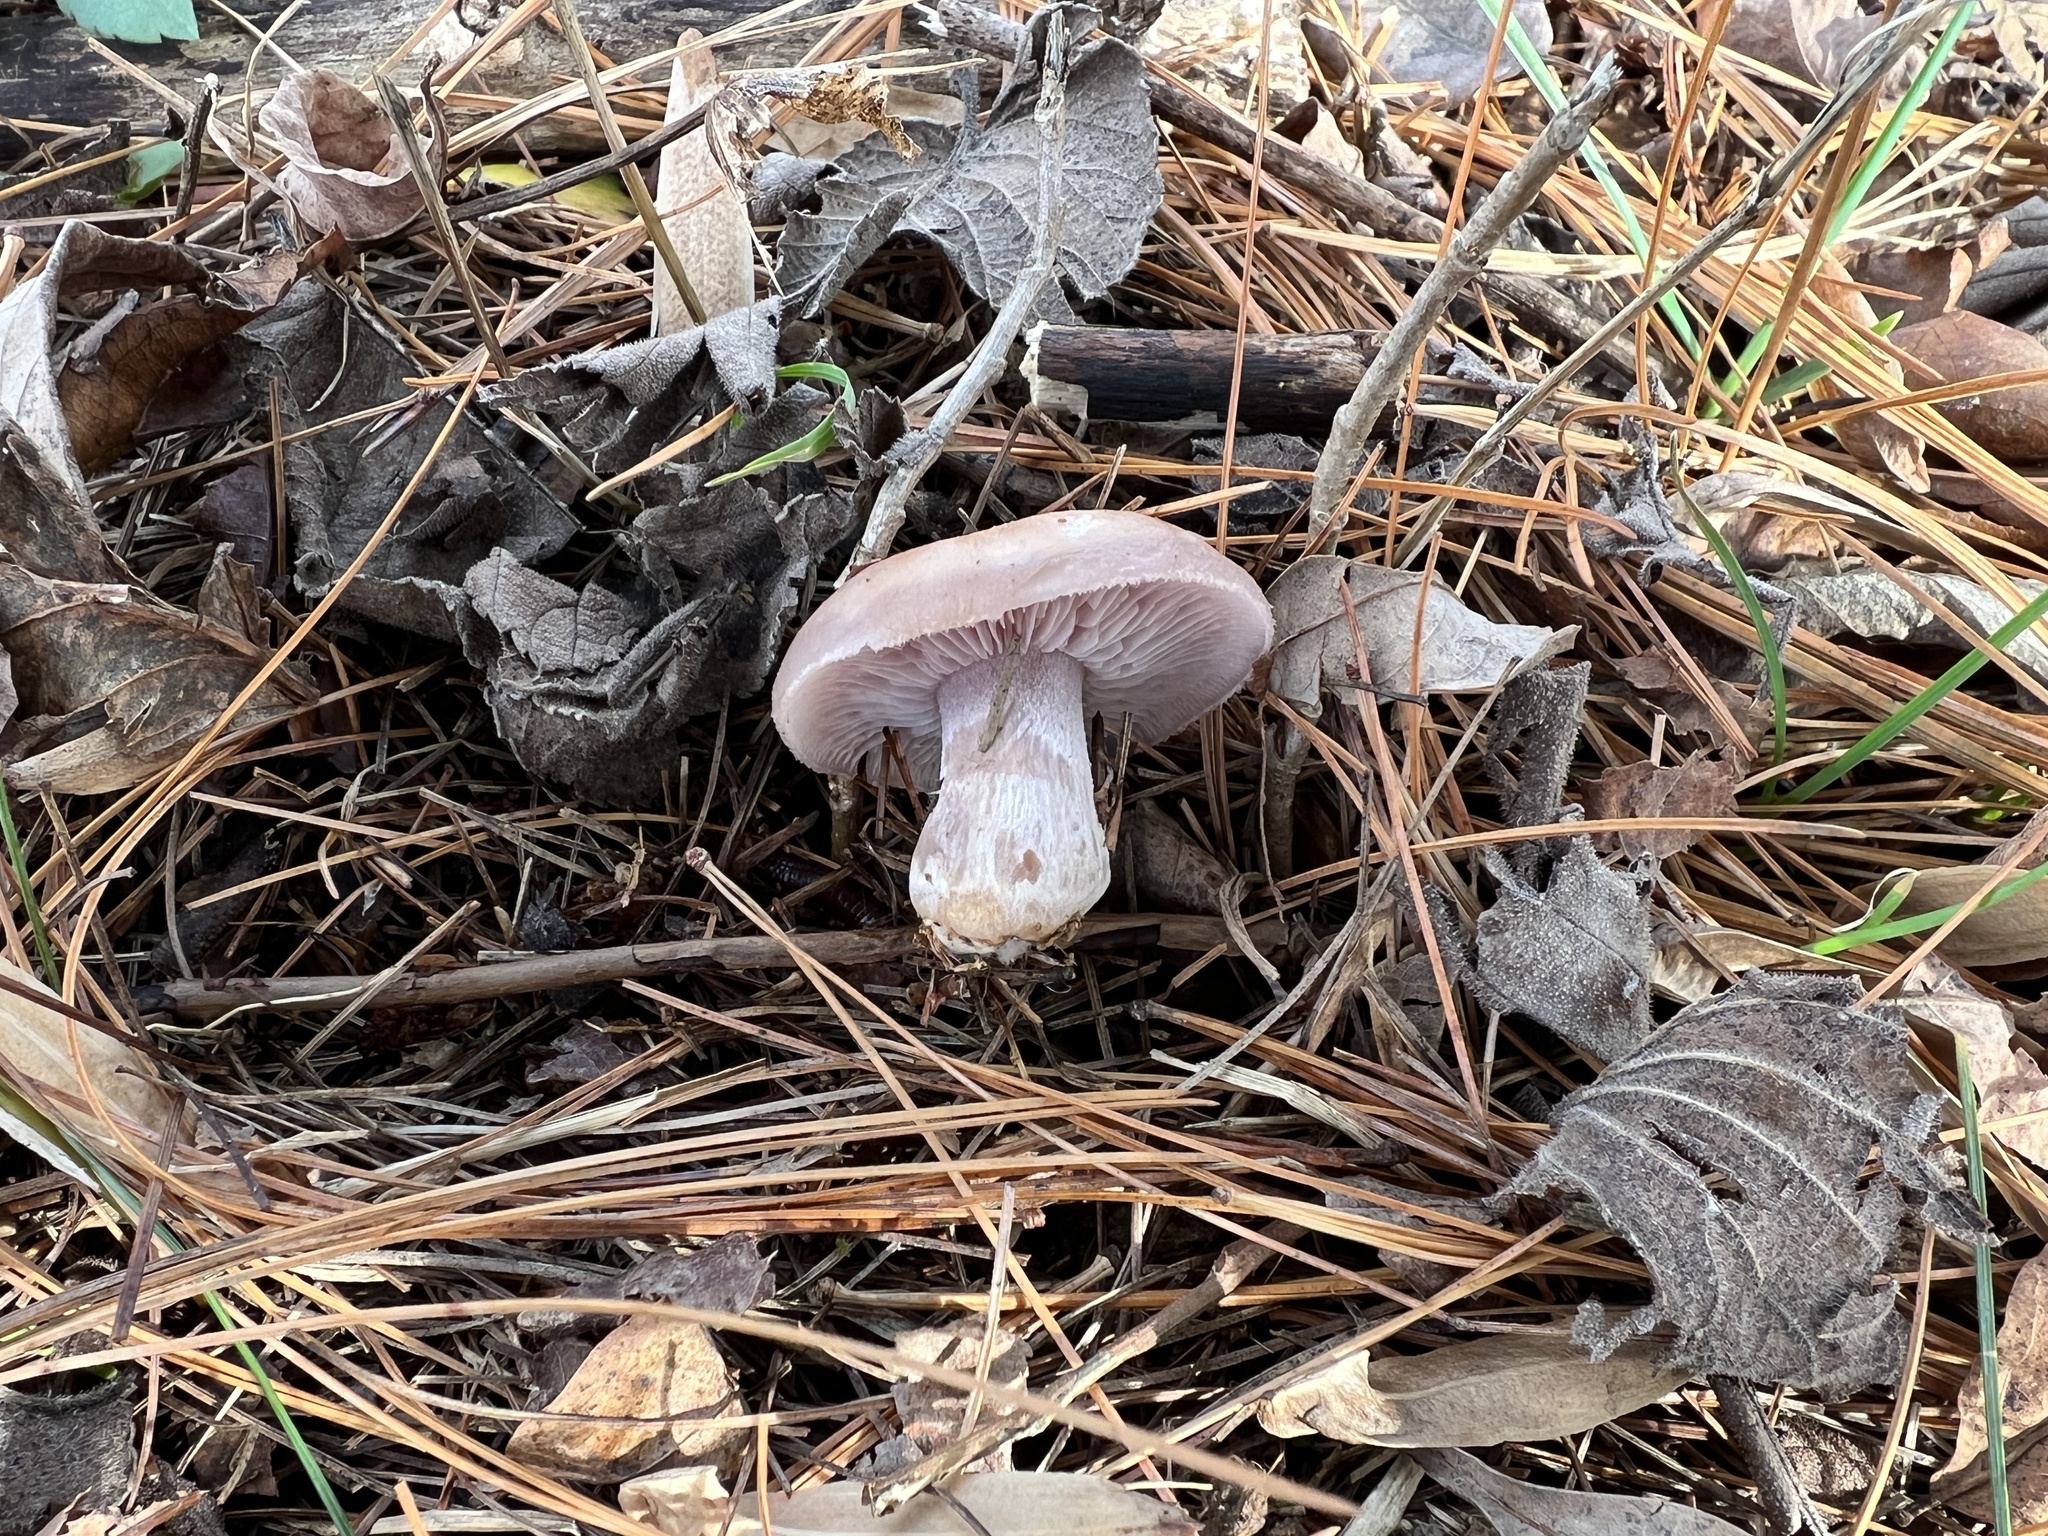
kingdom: Fungi
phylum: Basidiomycota
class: Agaricomycetes
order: Agaricales
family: Tricholomataceae
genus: Collybia
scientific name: Collybia
